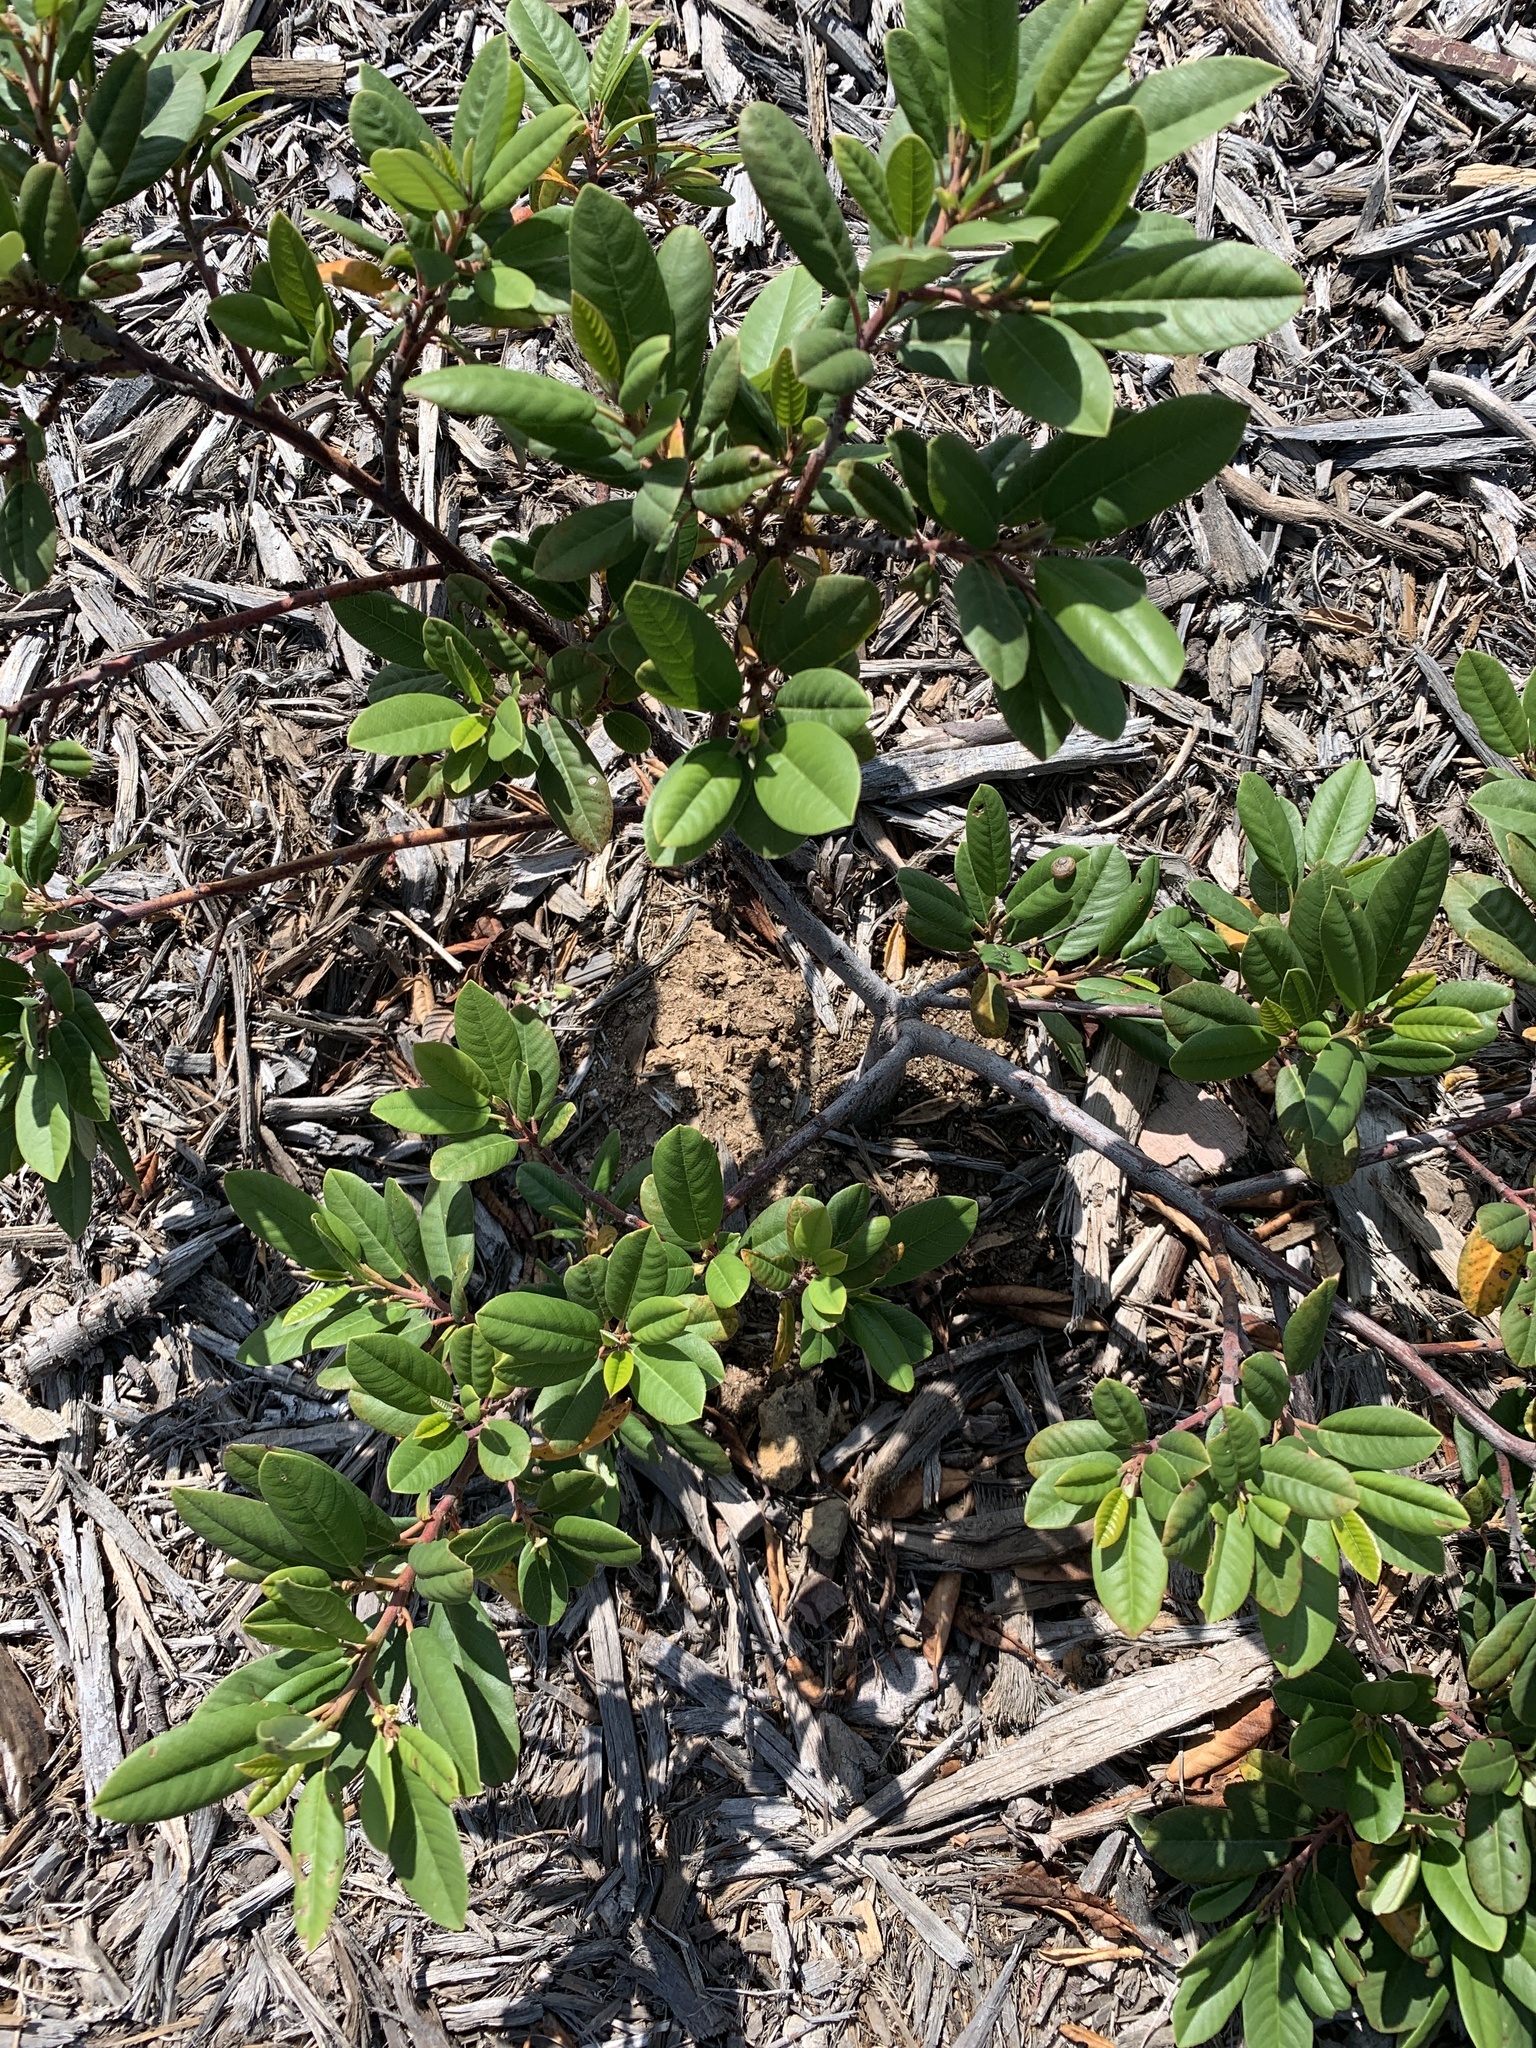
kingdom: Plantae
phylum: Tracheophyta
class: Magnoliopsida
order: Rosales
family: Rhamnaceae
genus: Frangula
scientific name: Frangula californica
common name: California buckthorn
